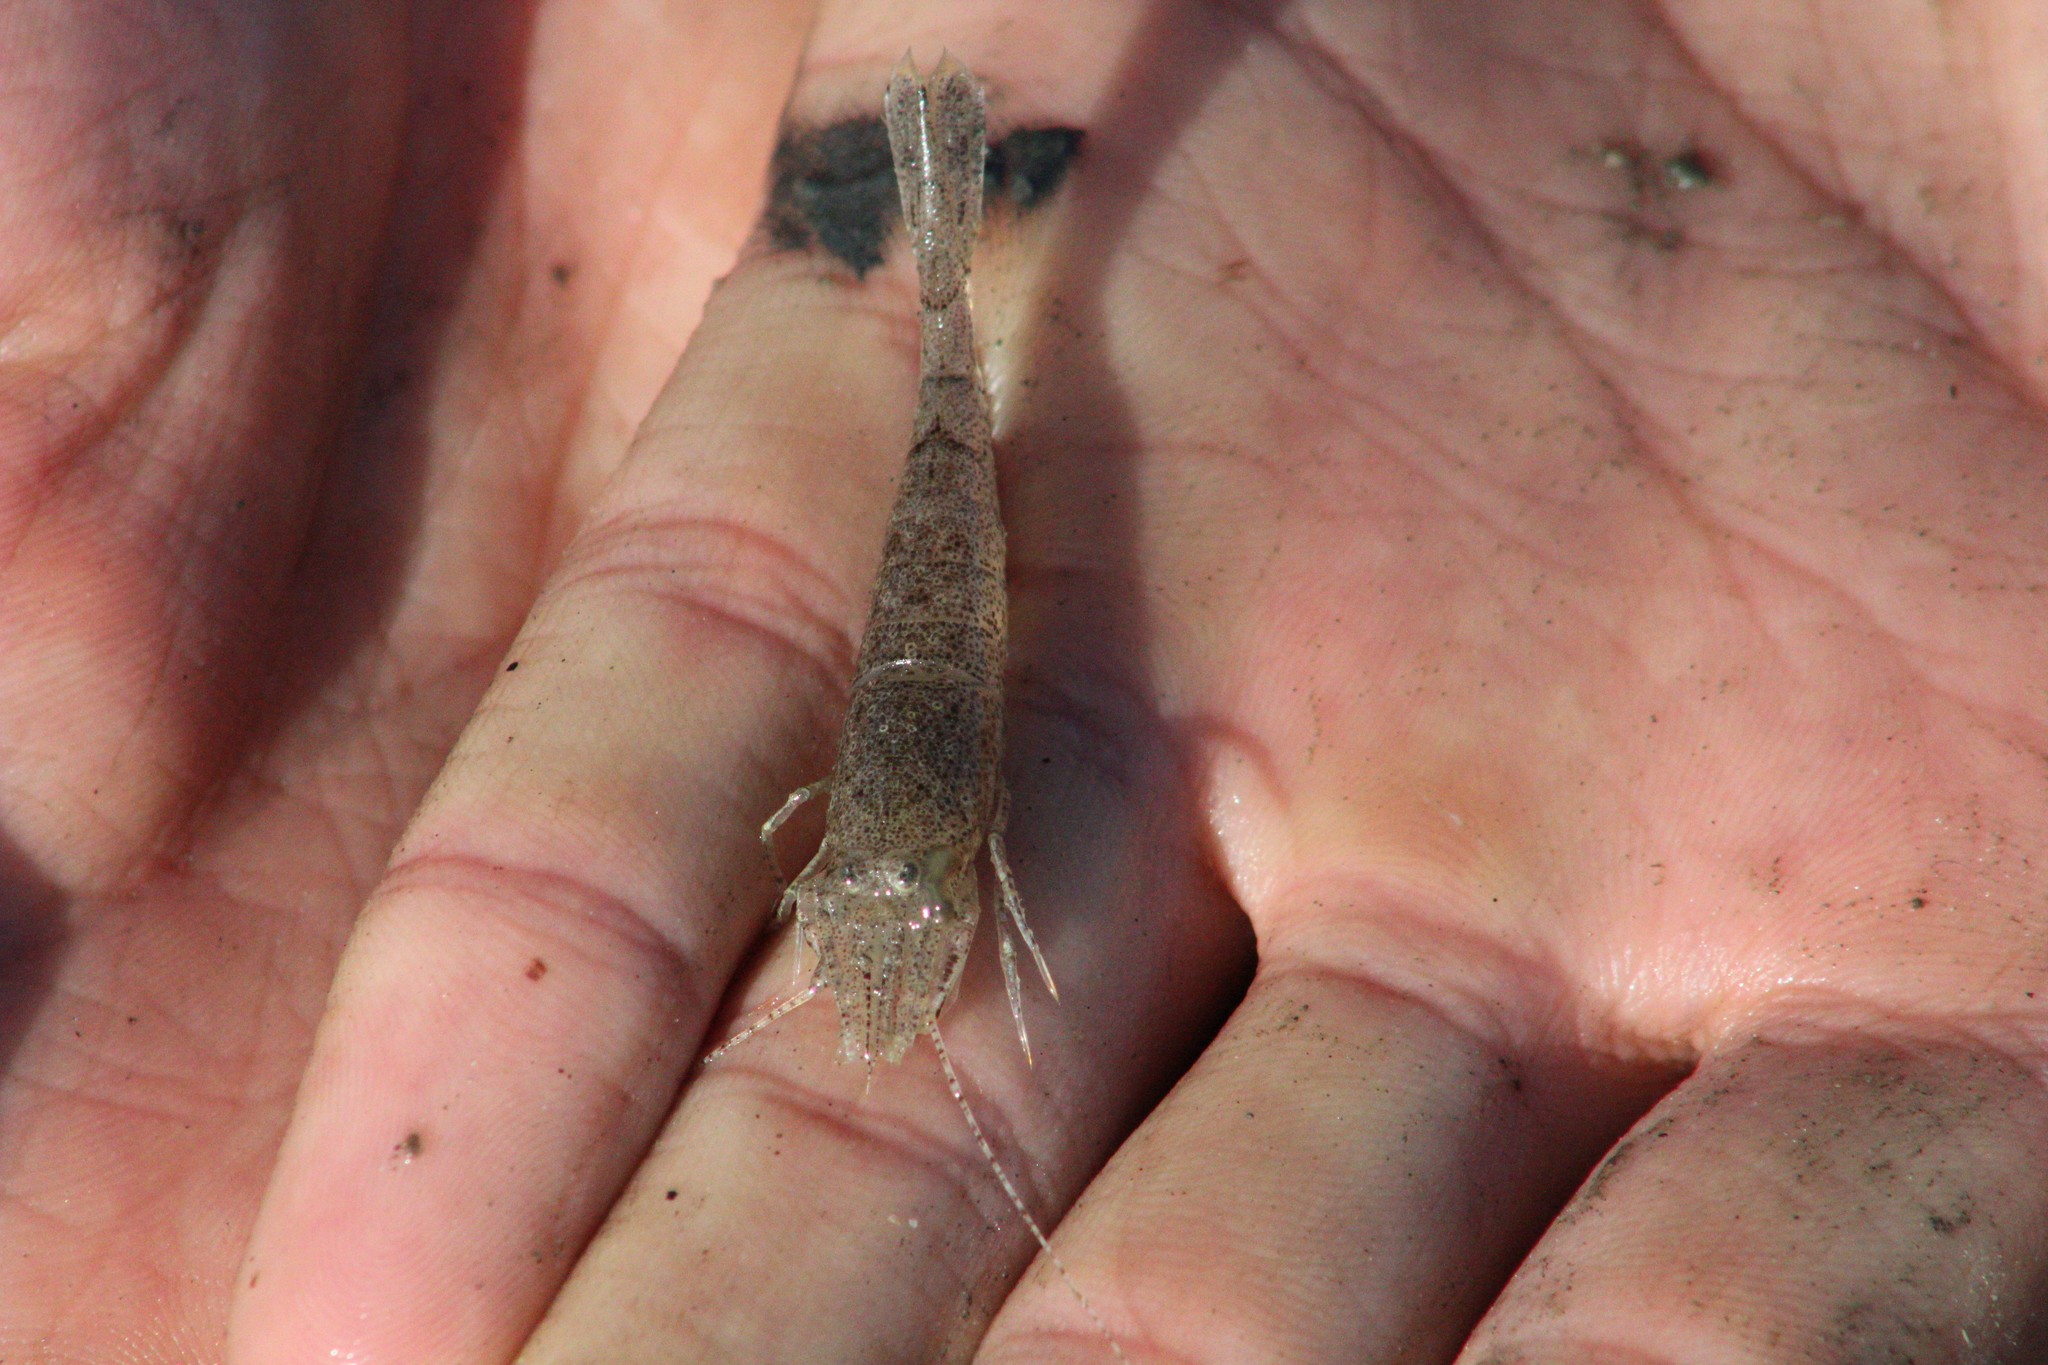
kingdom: Animalia
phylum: Arthropoda
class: Malacostraca
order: Decapoda
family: Crangonidae
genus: Crangon
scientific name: Crangon crangon
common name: Brown shrimp
